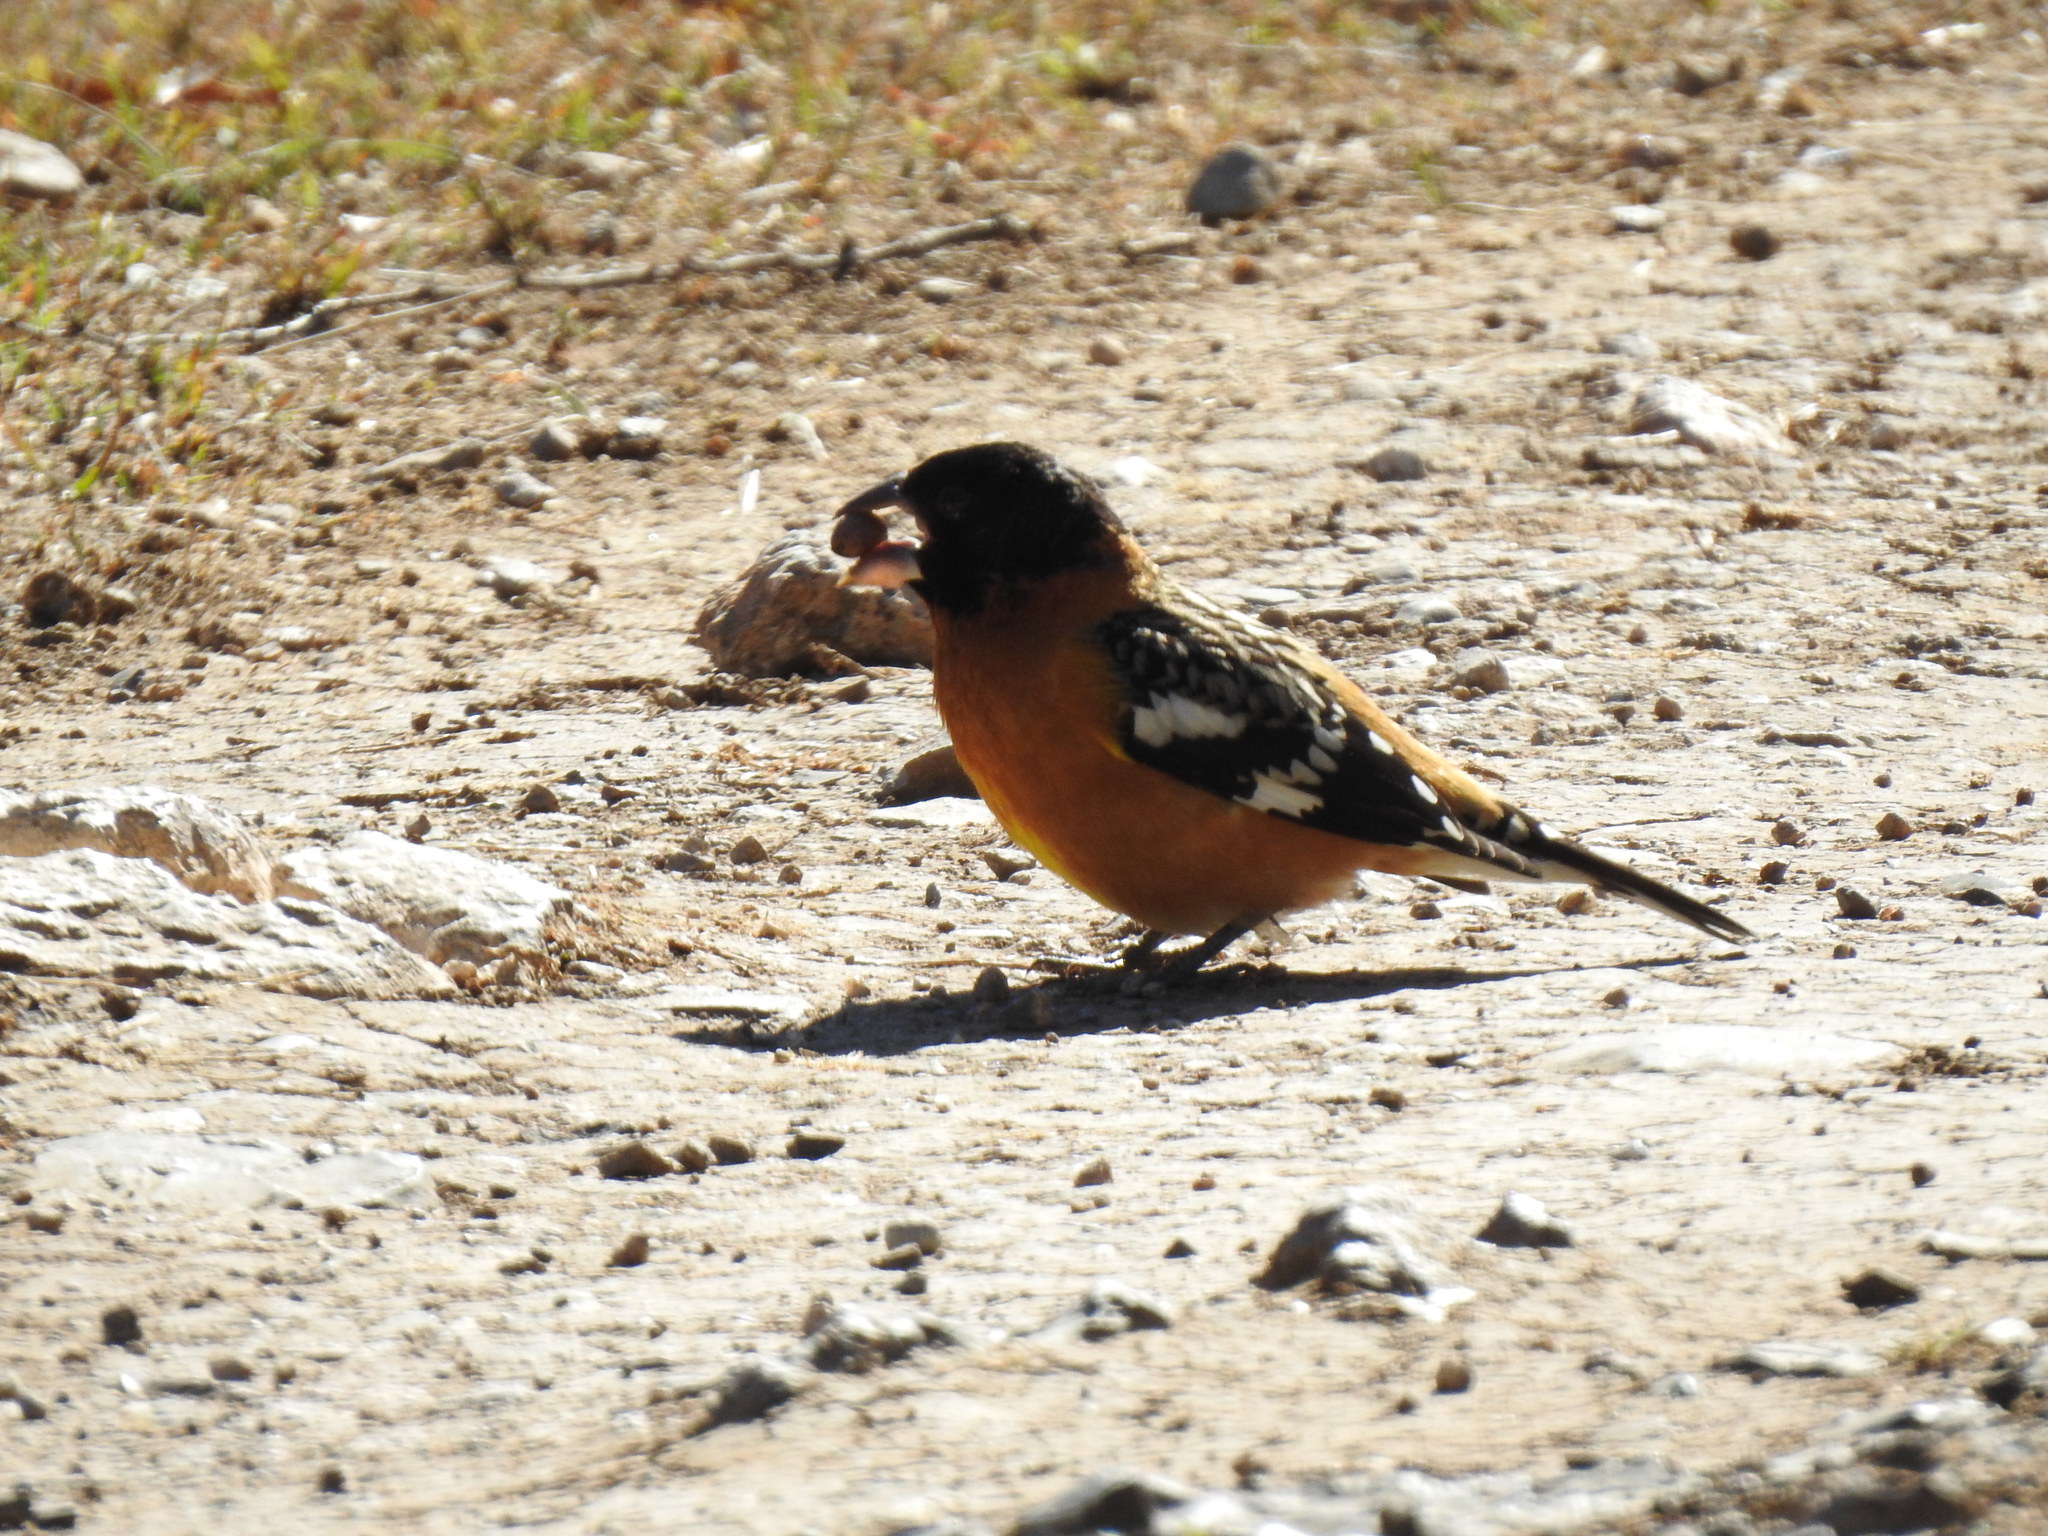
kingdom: Animalia
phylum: Chordata
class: Aves
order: Passeriformes
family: Cardinalidae
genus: Pheucticus
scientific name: Pheucticus melanocephalus
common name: Black-headed grosbeak
